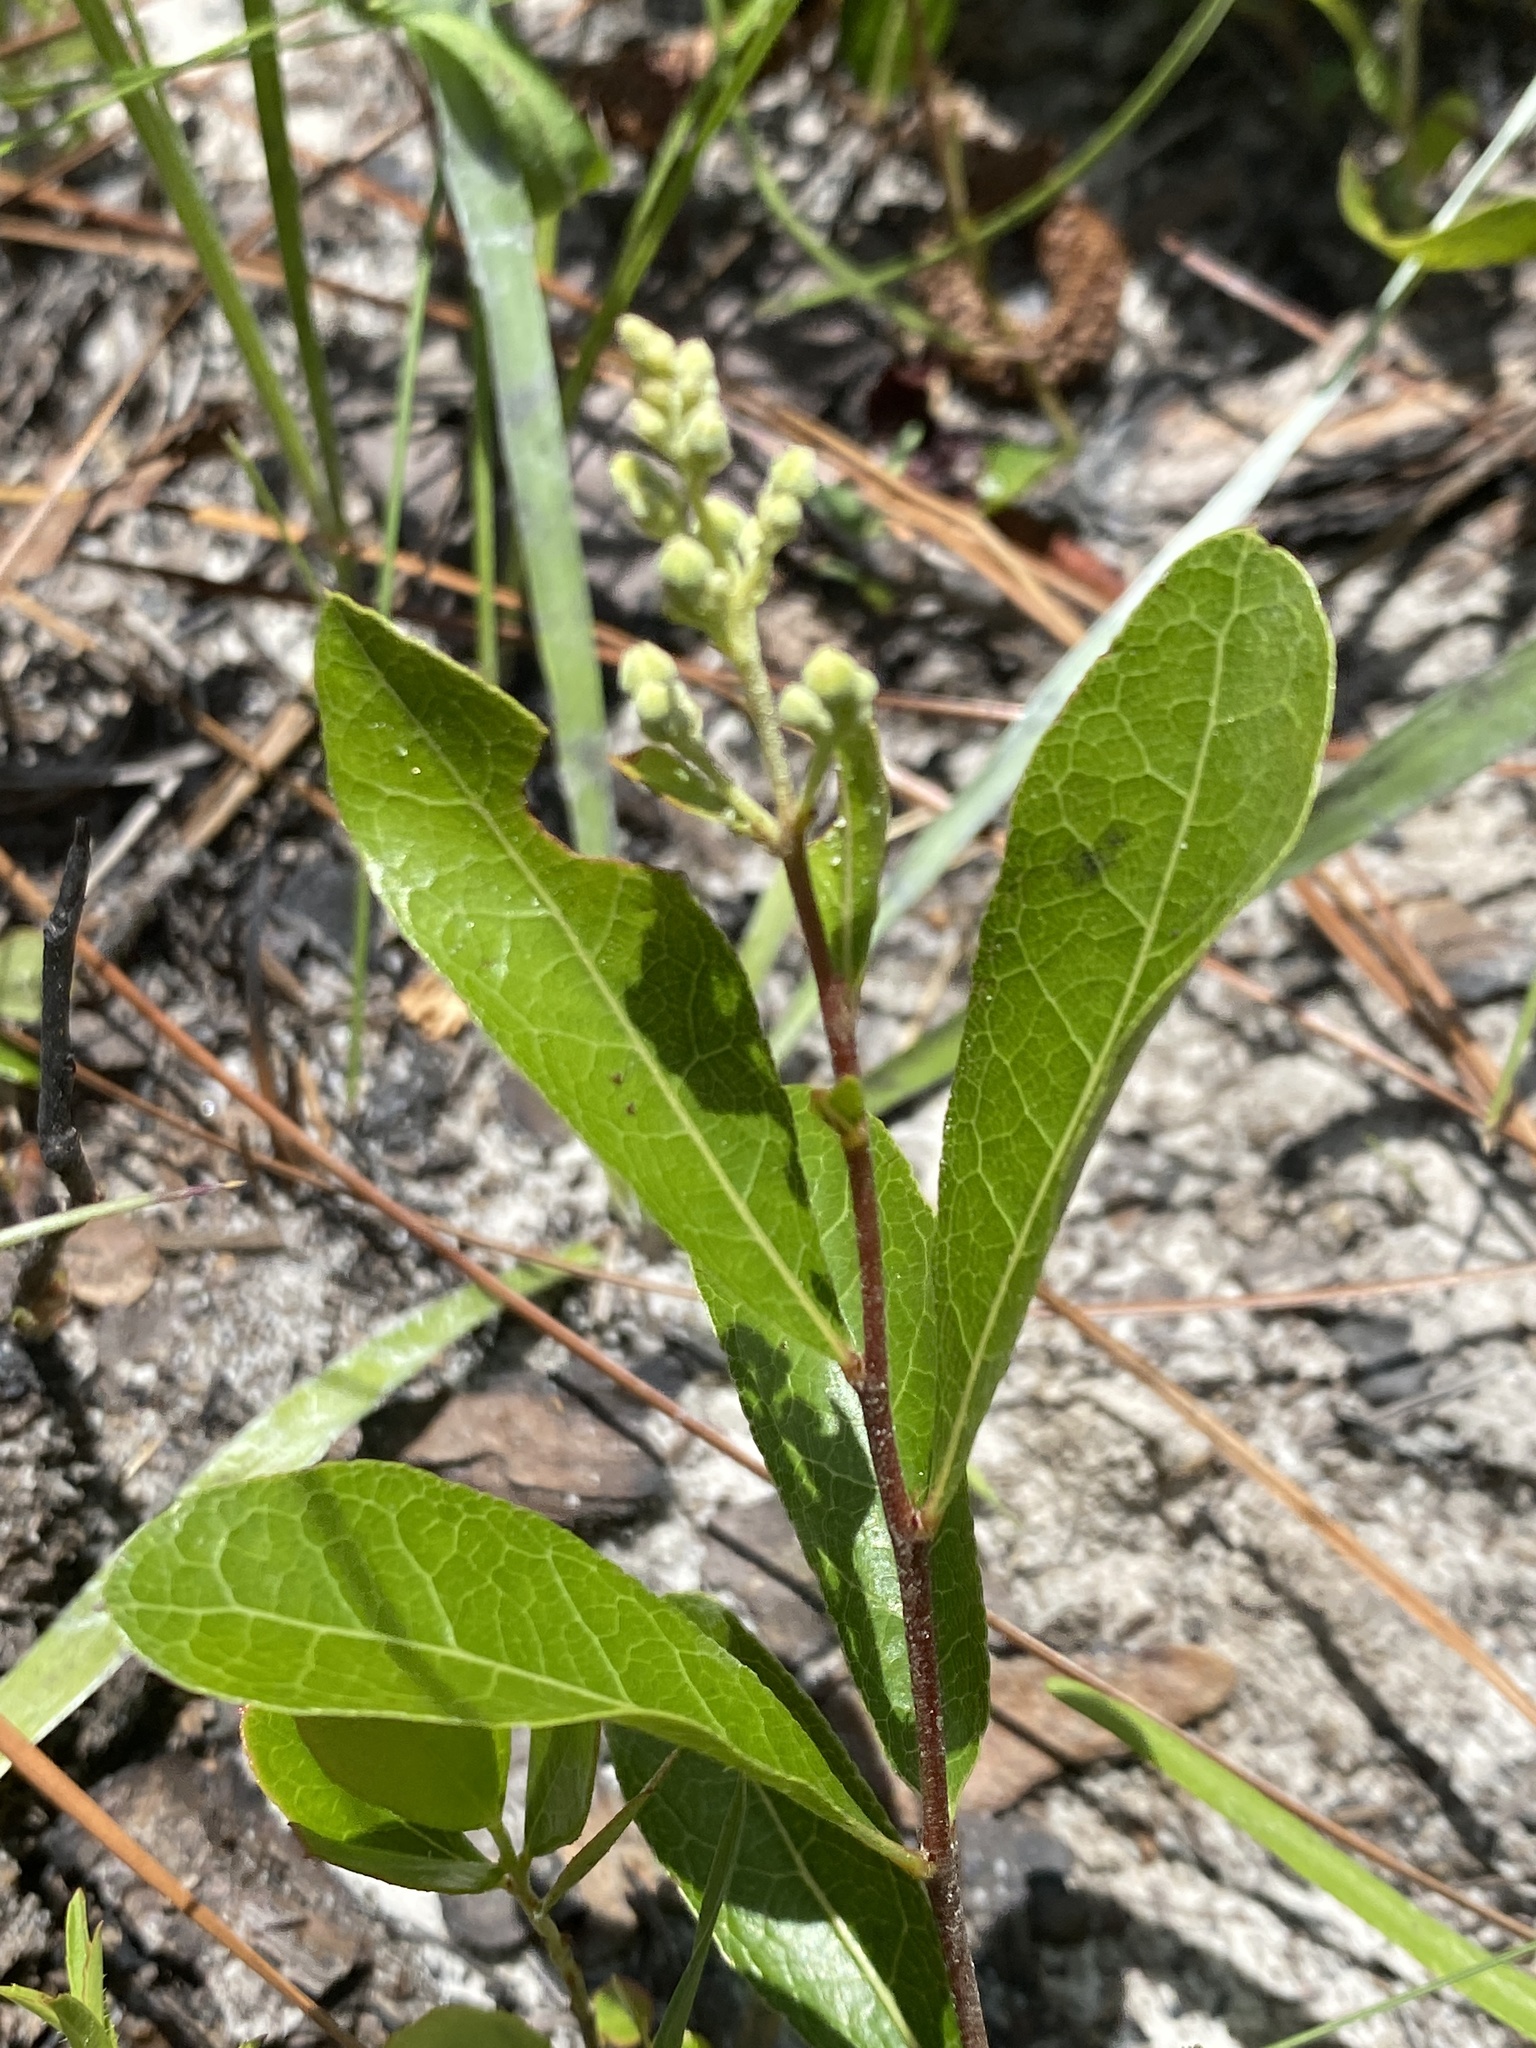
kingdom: Plantae
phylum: Tracheophyta
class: Magnoliopsida
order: Malpighiales
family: Chrysobalanaceae
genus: Geobalanus
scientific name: Geobalanus oblongifolius
